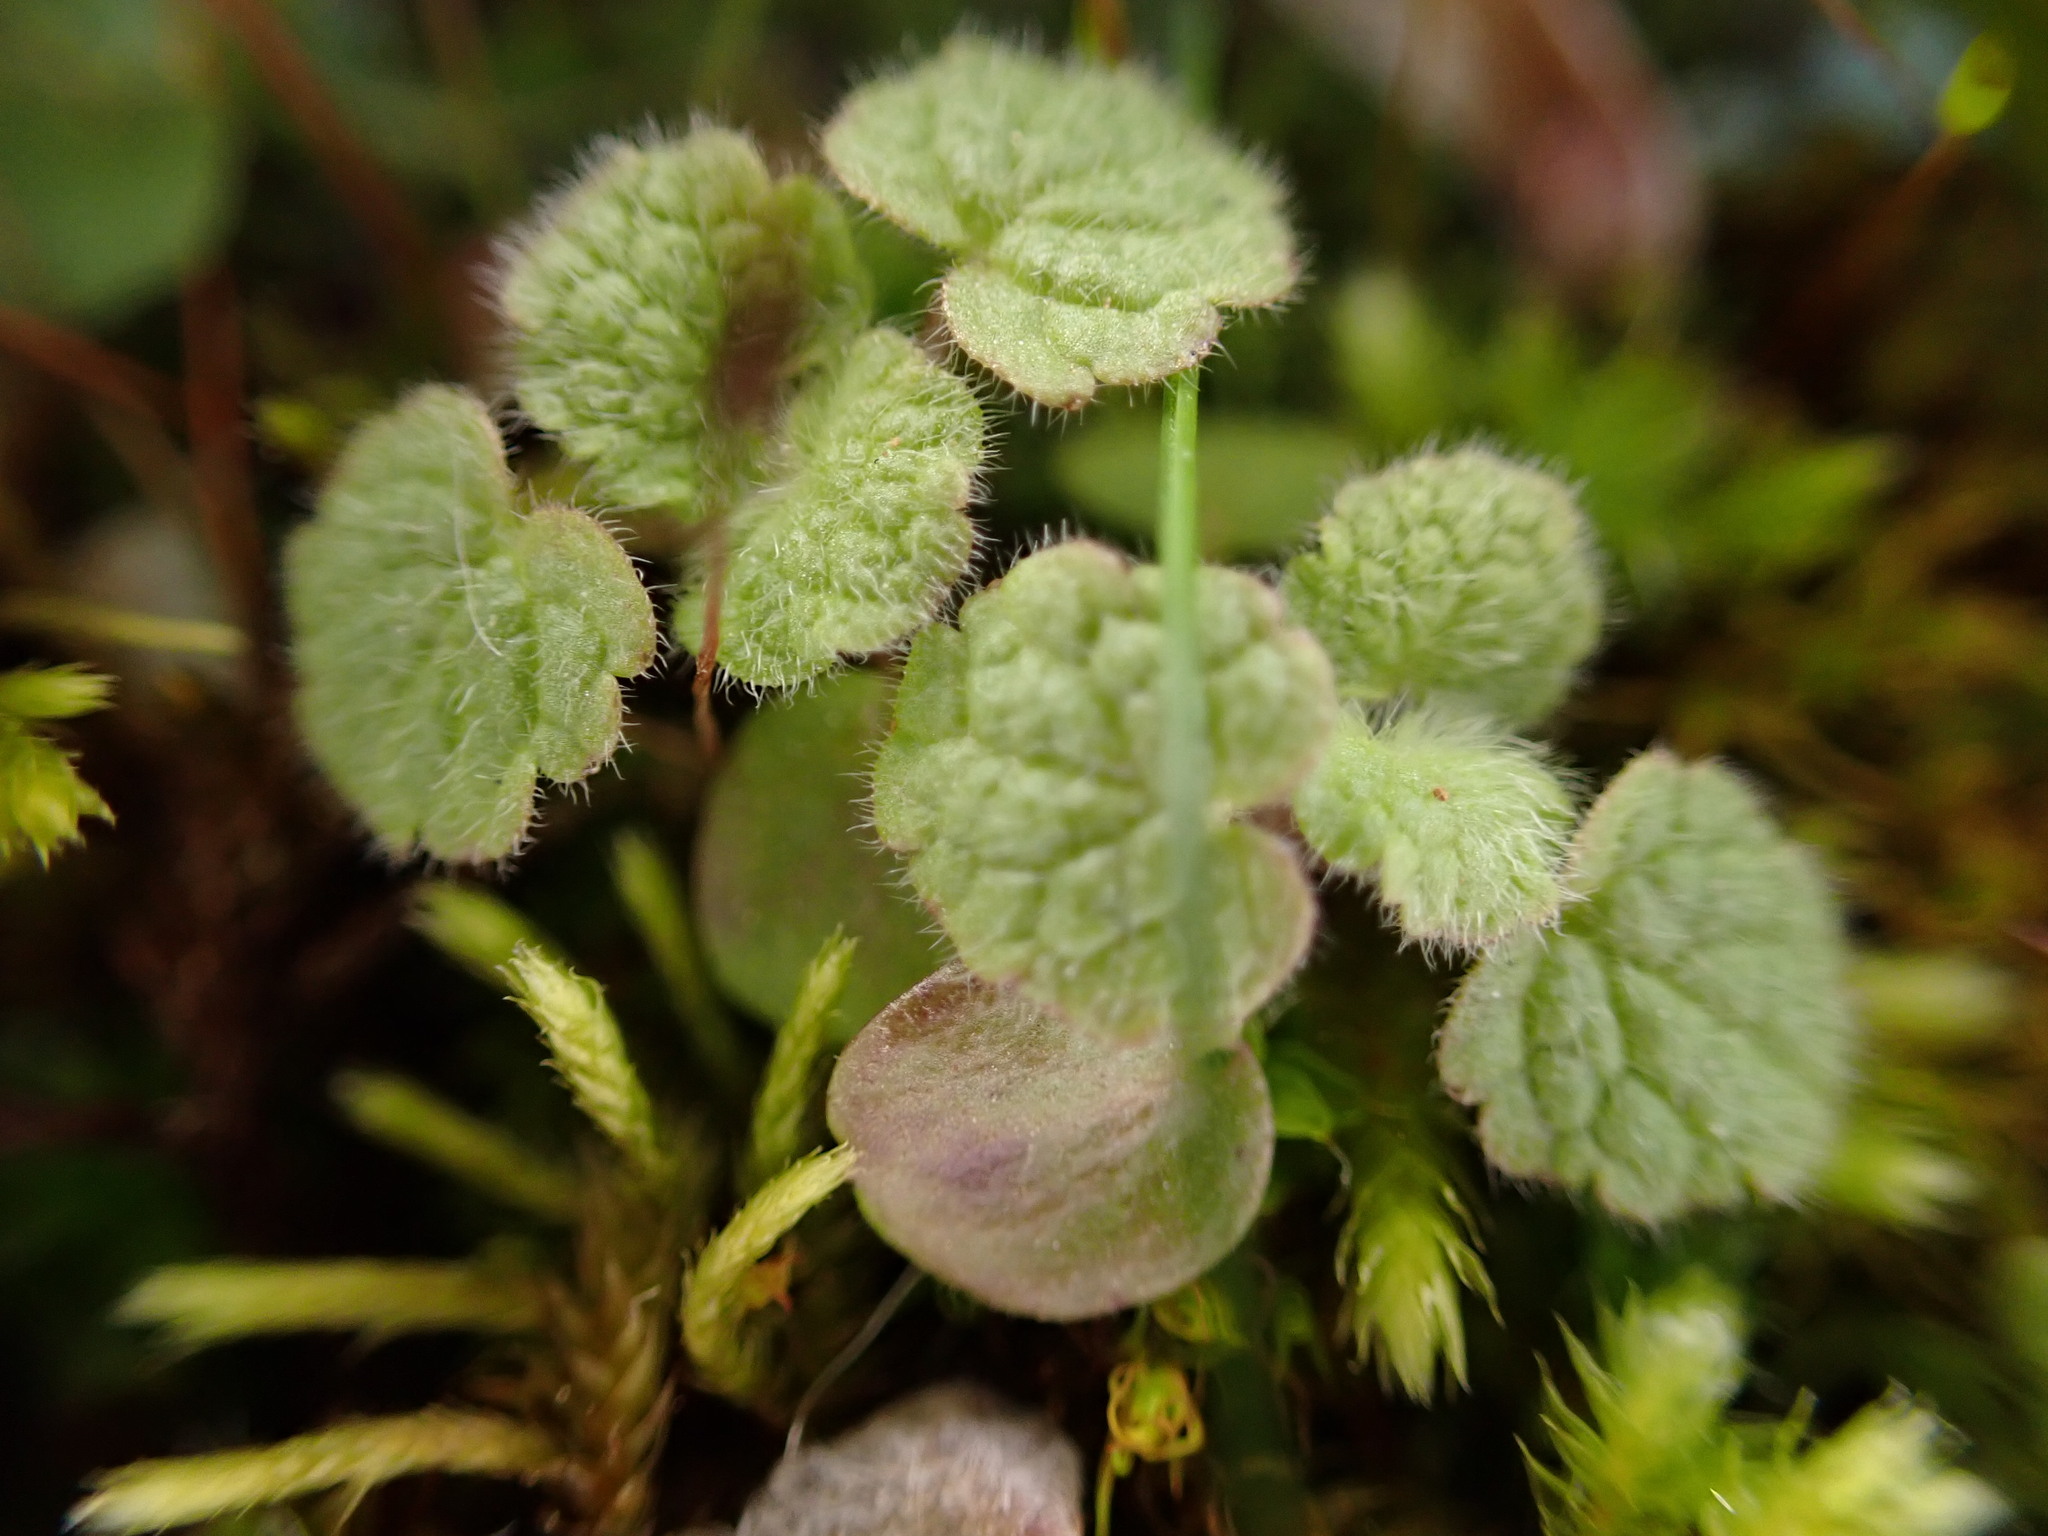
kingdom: Plantae
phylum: Tracheophyta
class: Magnoliopsida
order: Lamiales
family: Lamiaceae
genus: Lamium
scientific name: Lamium purpureum
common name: Red dead-nettle
